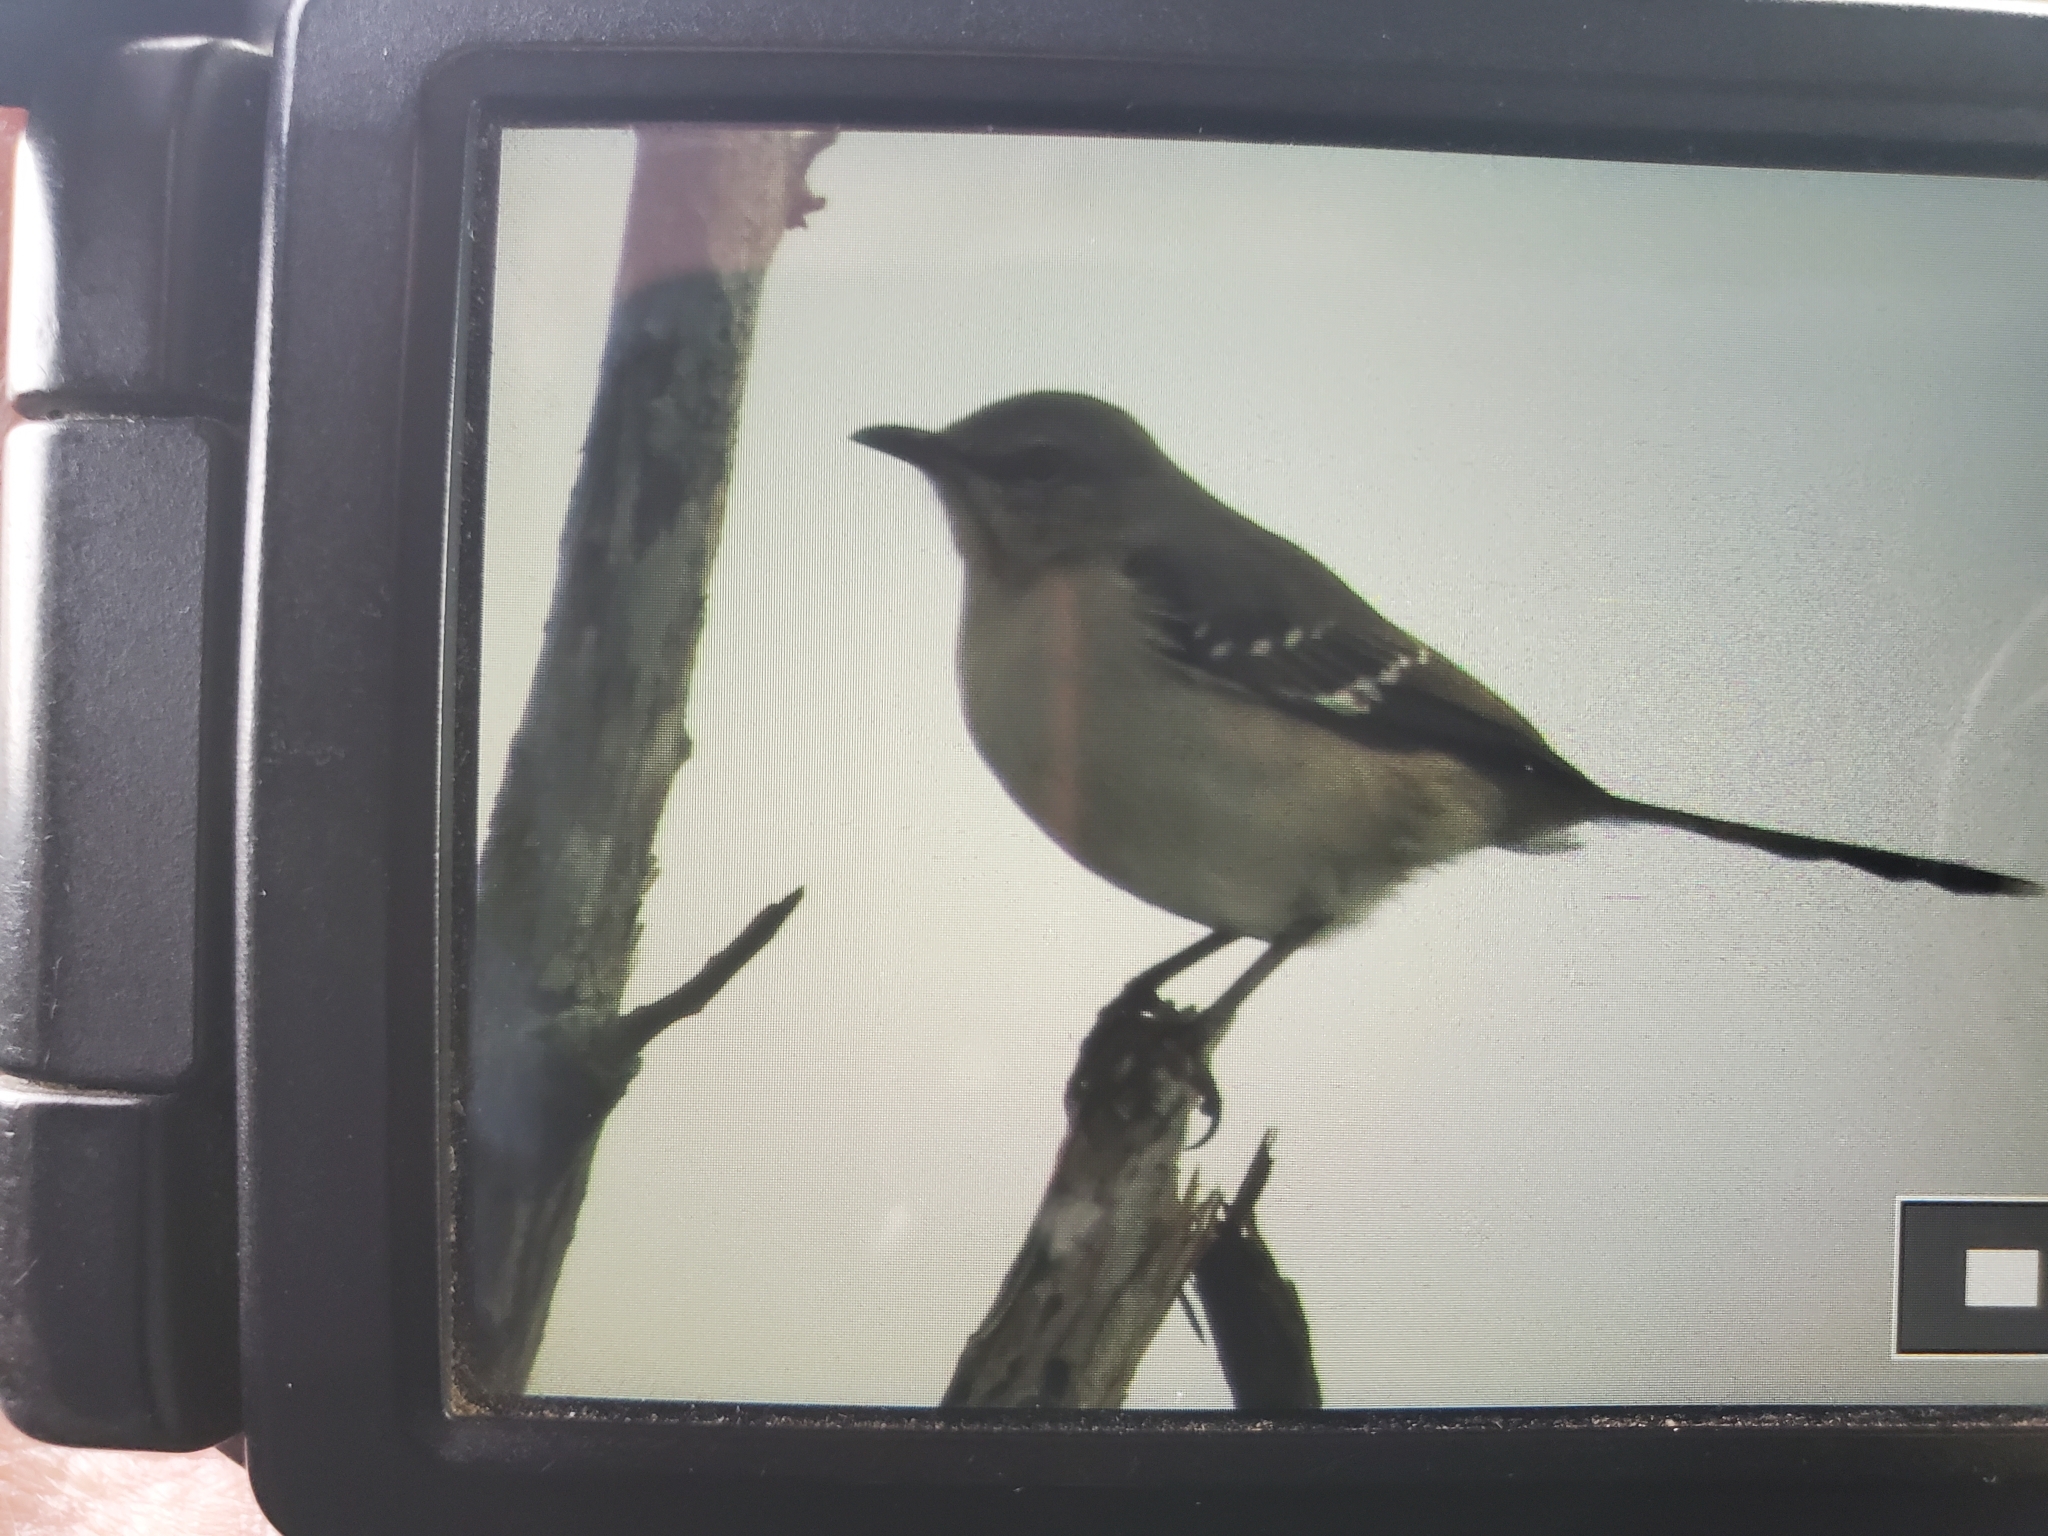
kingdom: Animalia
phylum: Chordata
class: Aves
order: Passeriformes
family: Mimidae
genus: Mimus
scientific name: Mimus polyglottos
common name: Northern mockingbird
